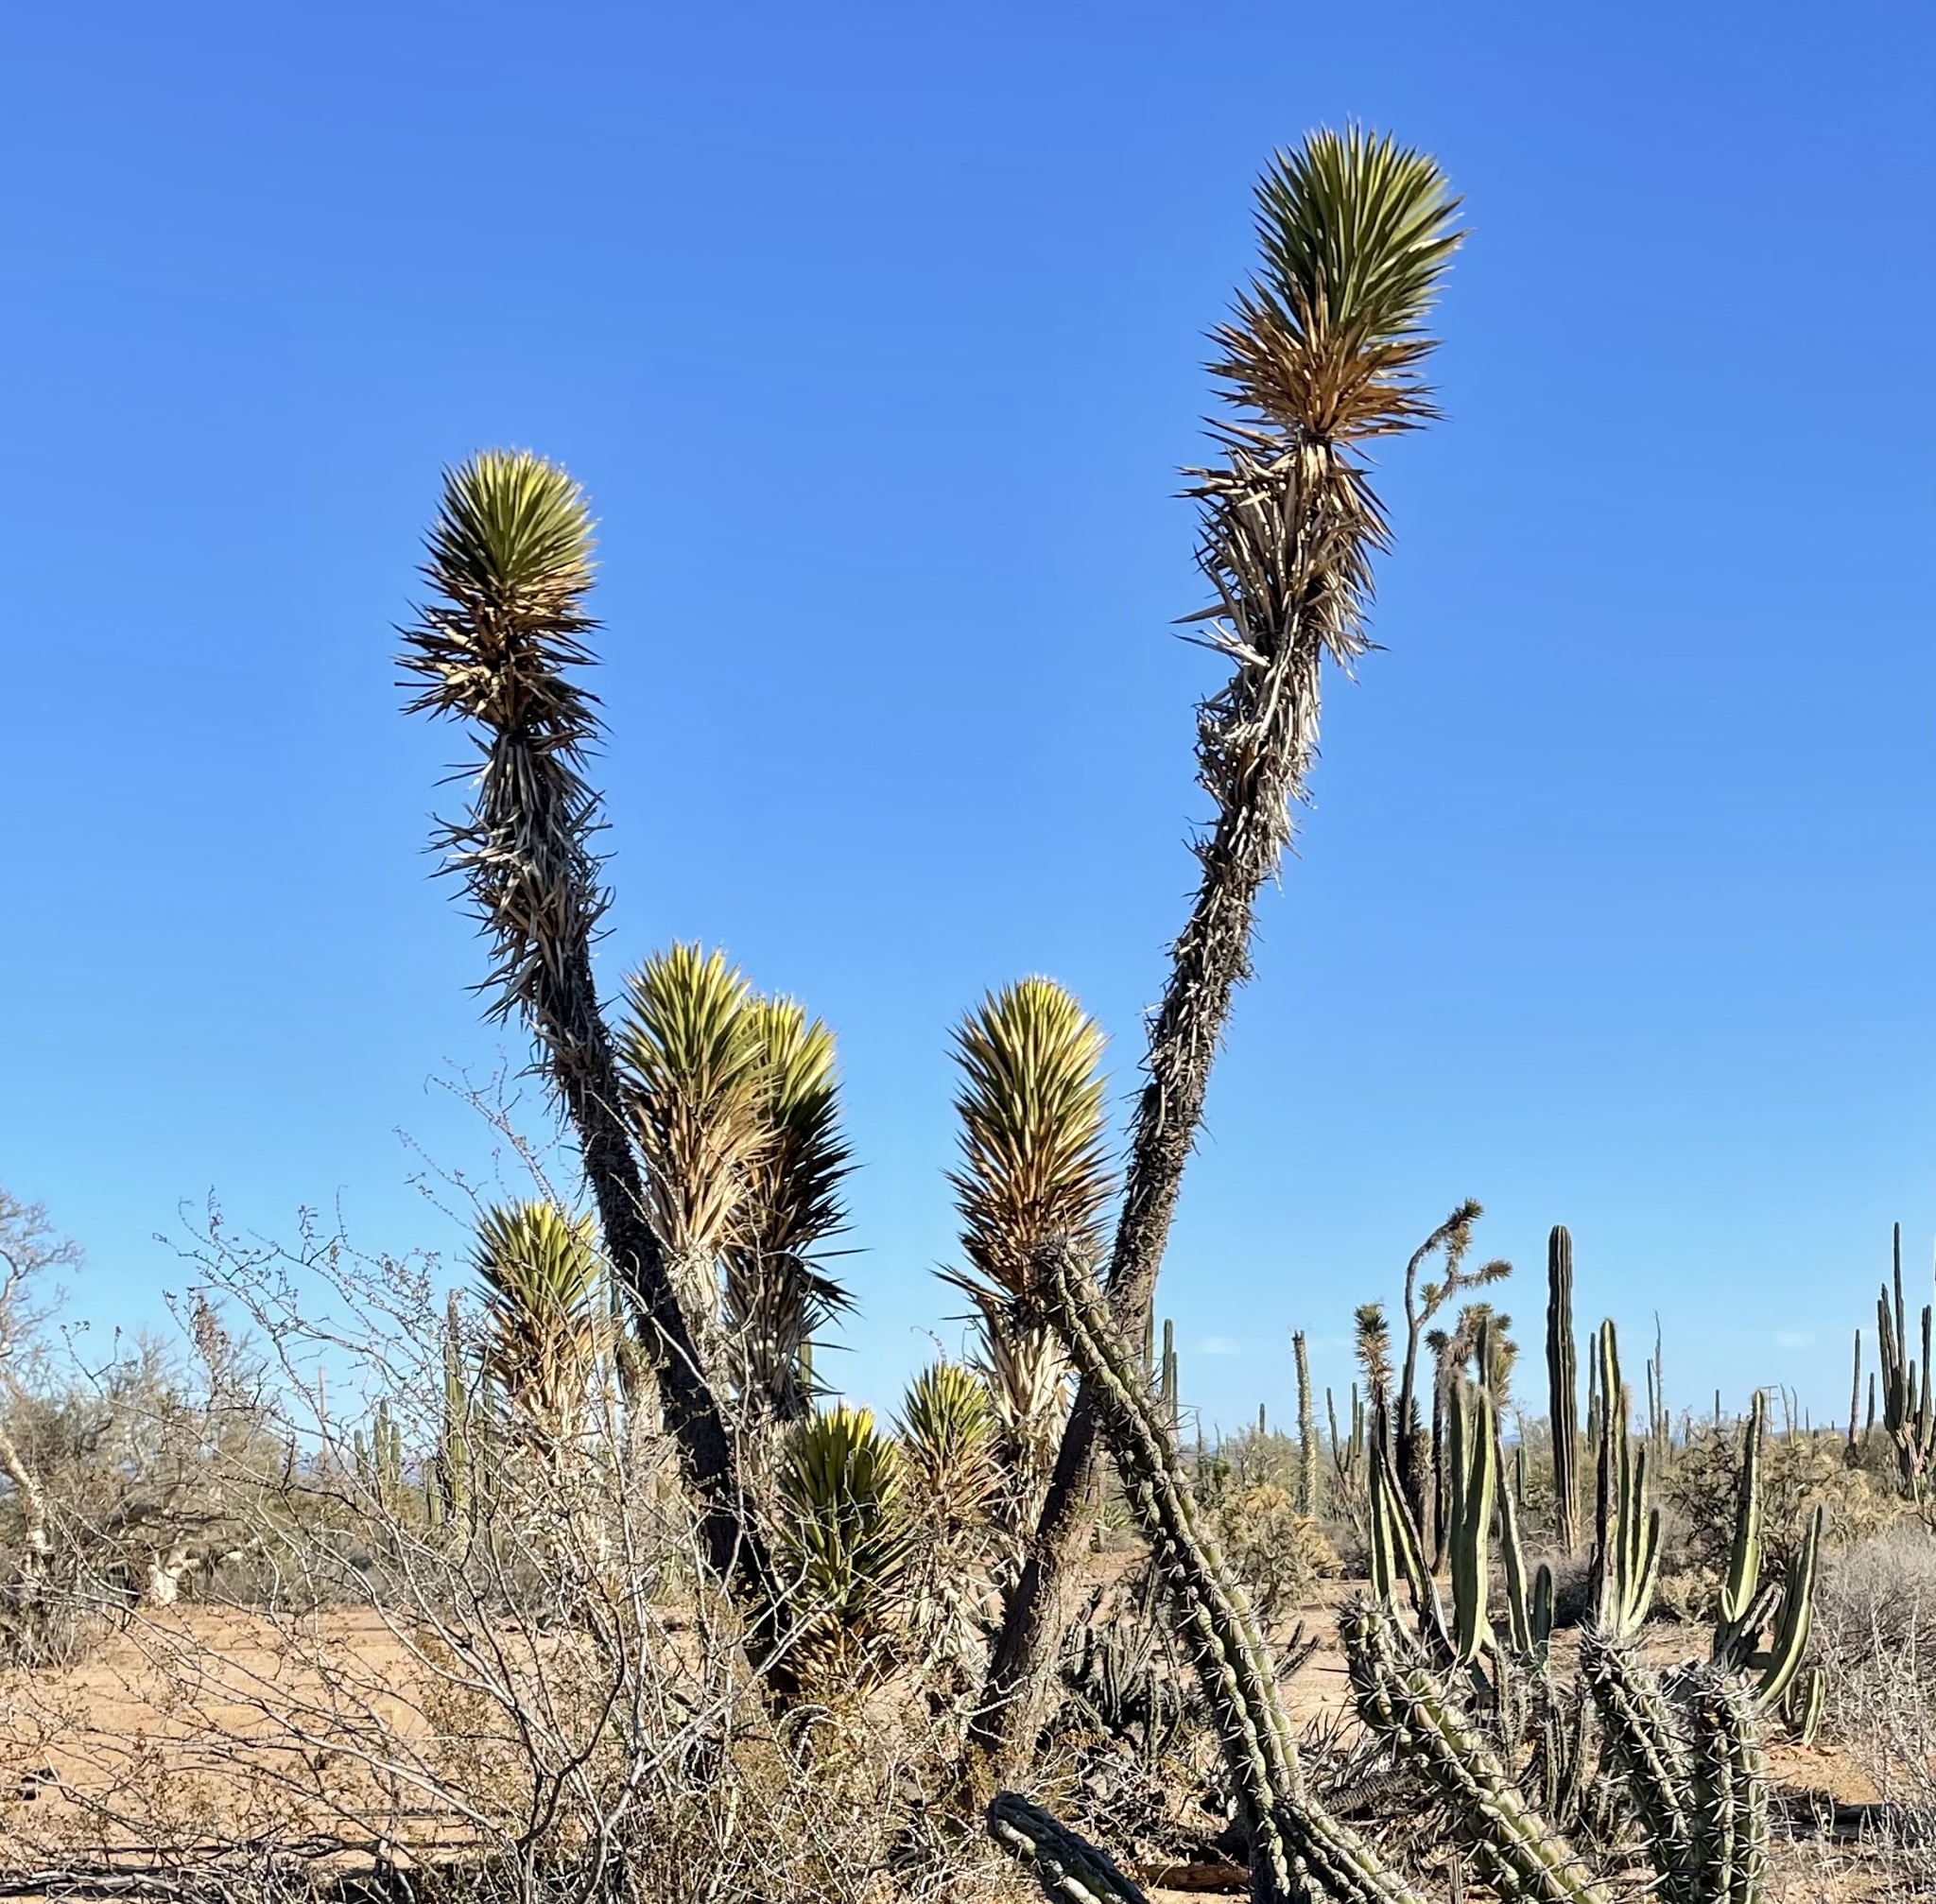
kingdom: Plantae
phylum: Tracheophyta
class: Liliopsida
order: Asparagales
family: Asparagaceae
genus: Yucca
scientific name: Yucca valida
